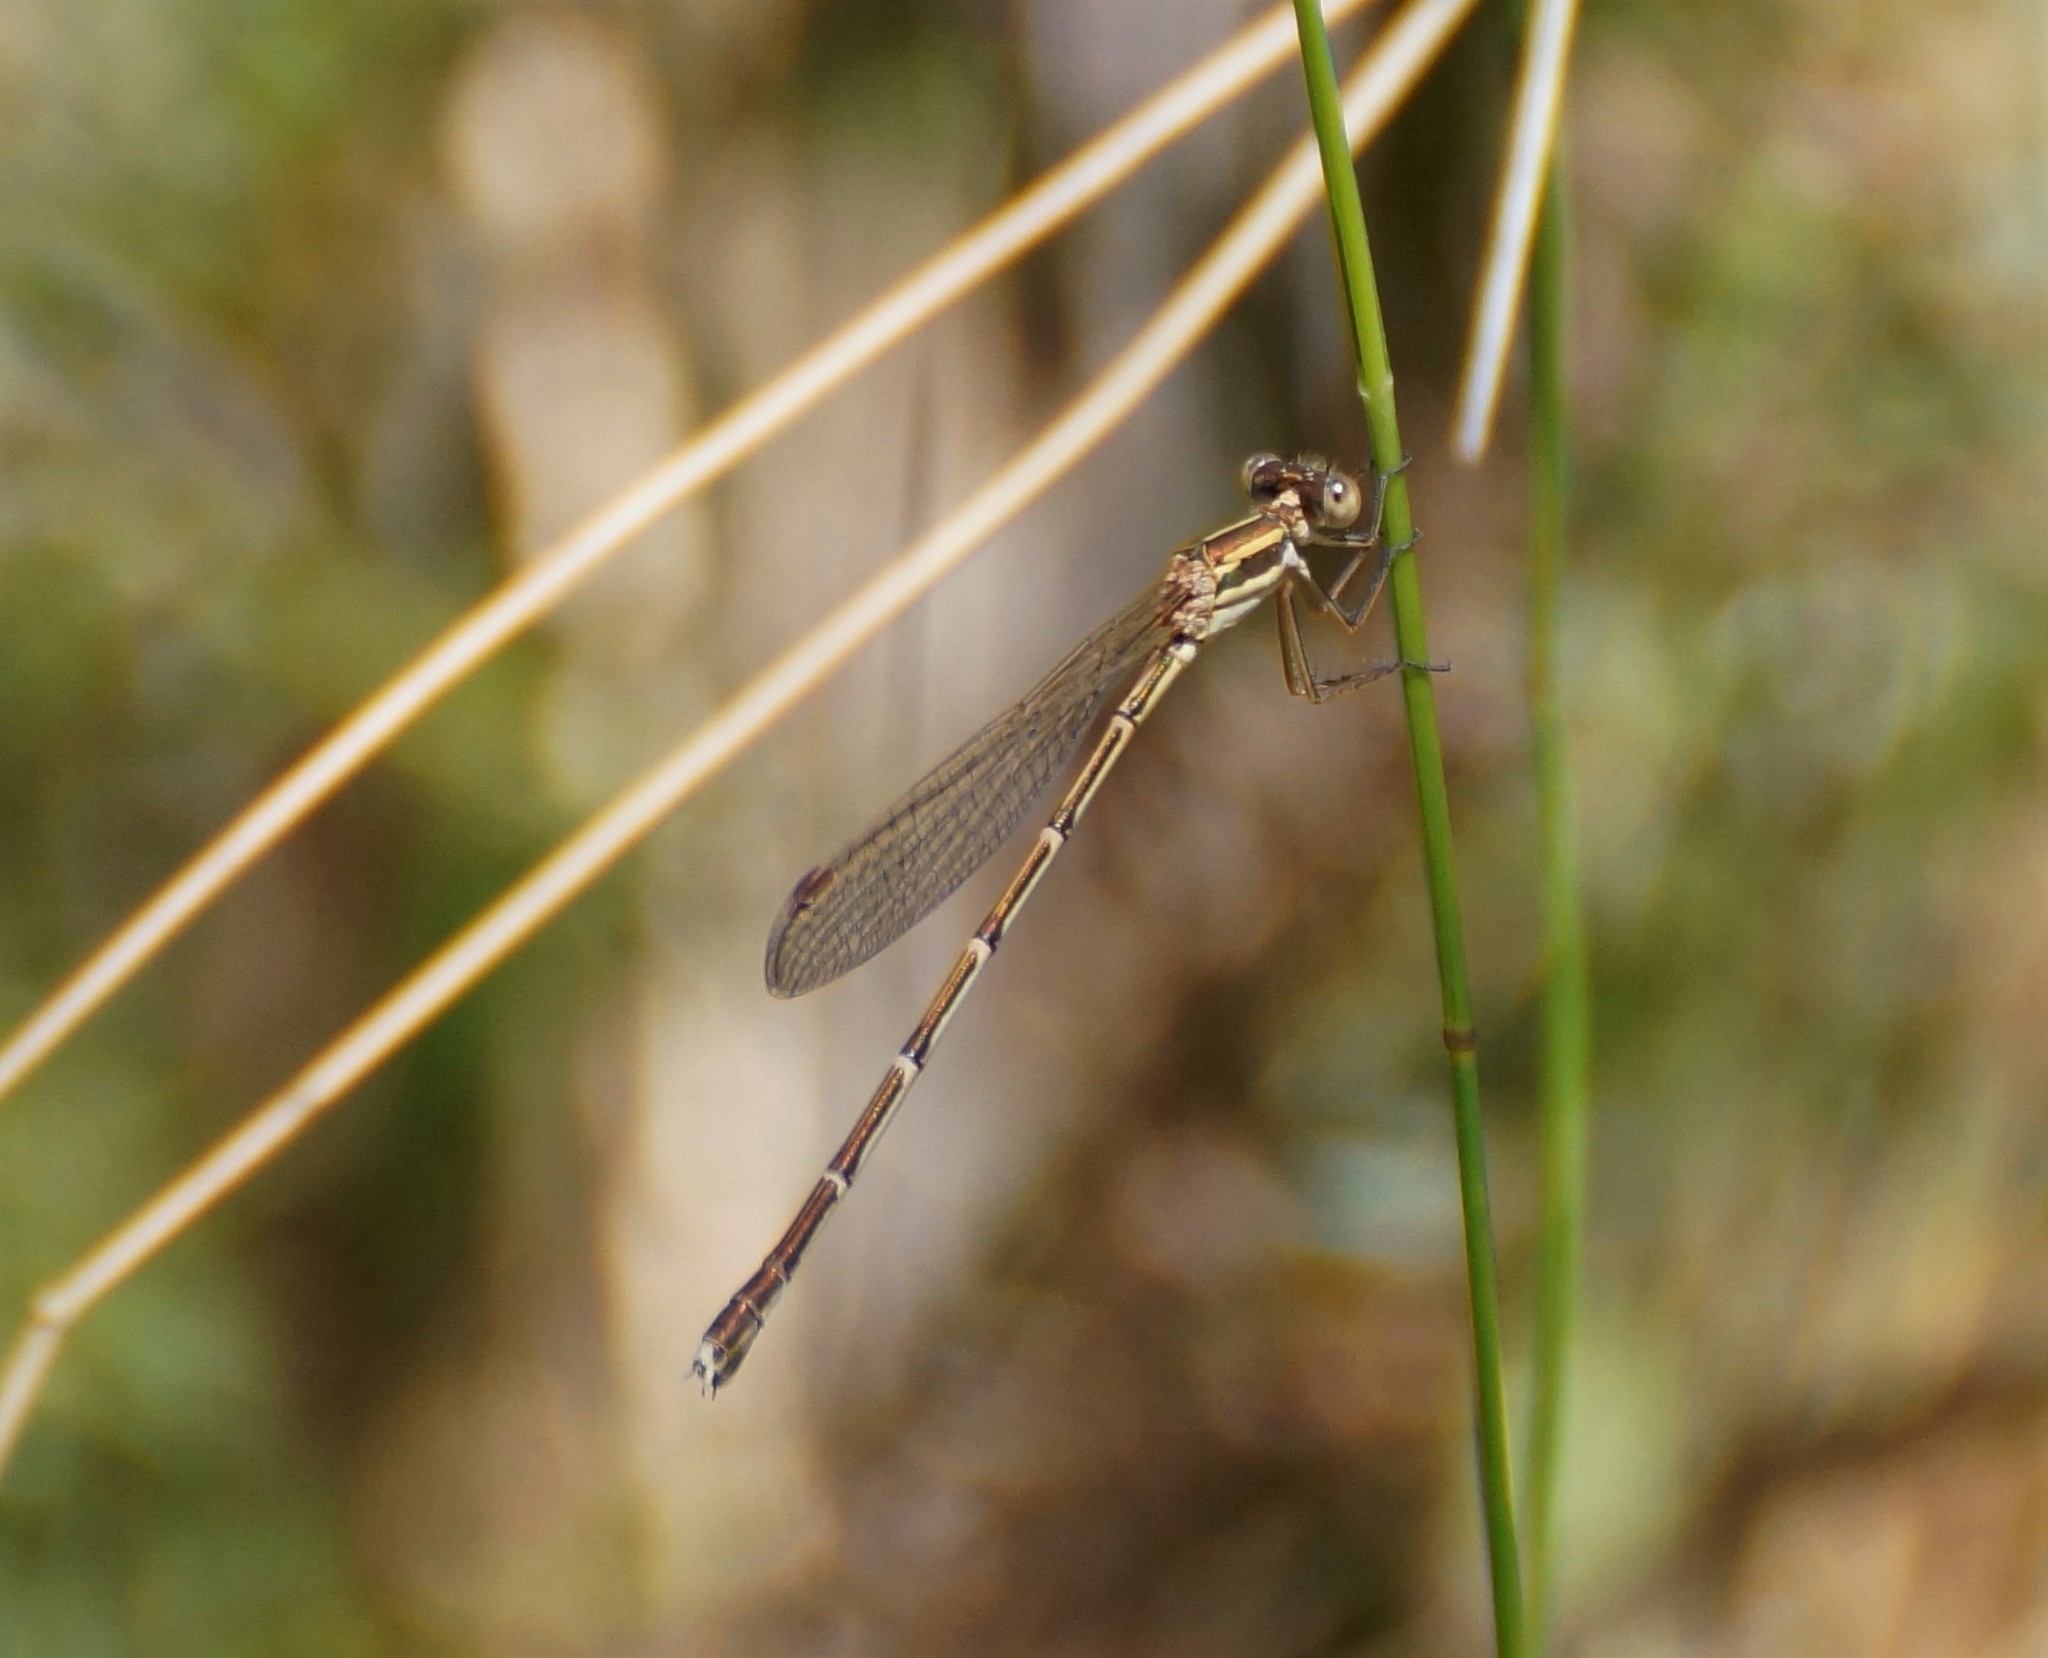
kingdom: Animalia
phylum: Arthropoda
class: Insecta
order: Odonata
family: Lestidae
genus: Austrolestes
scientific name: Austrolestes analis
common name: Slender ringtail
